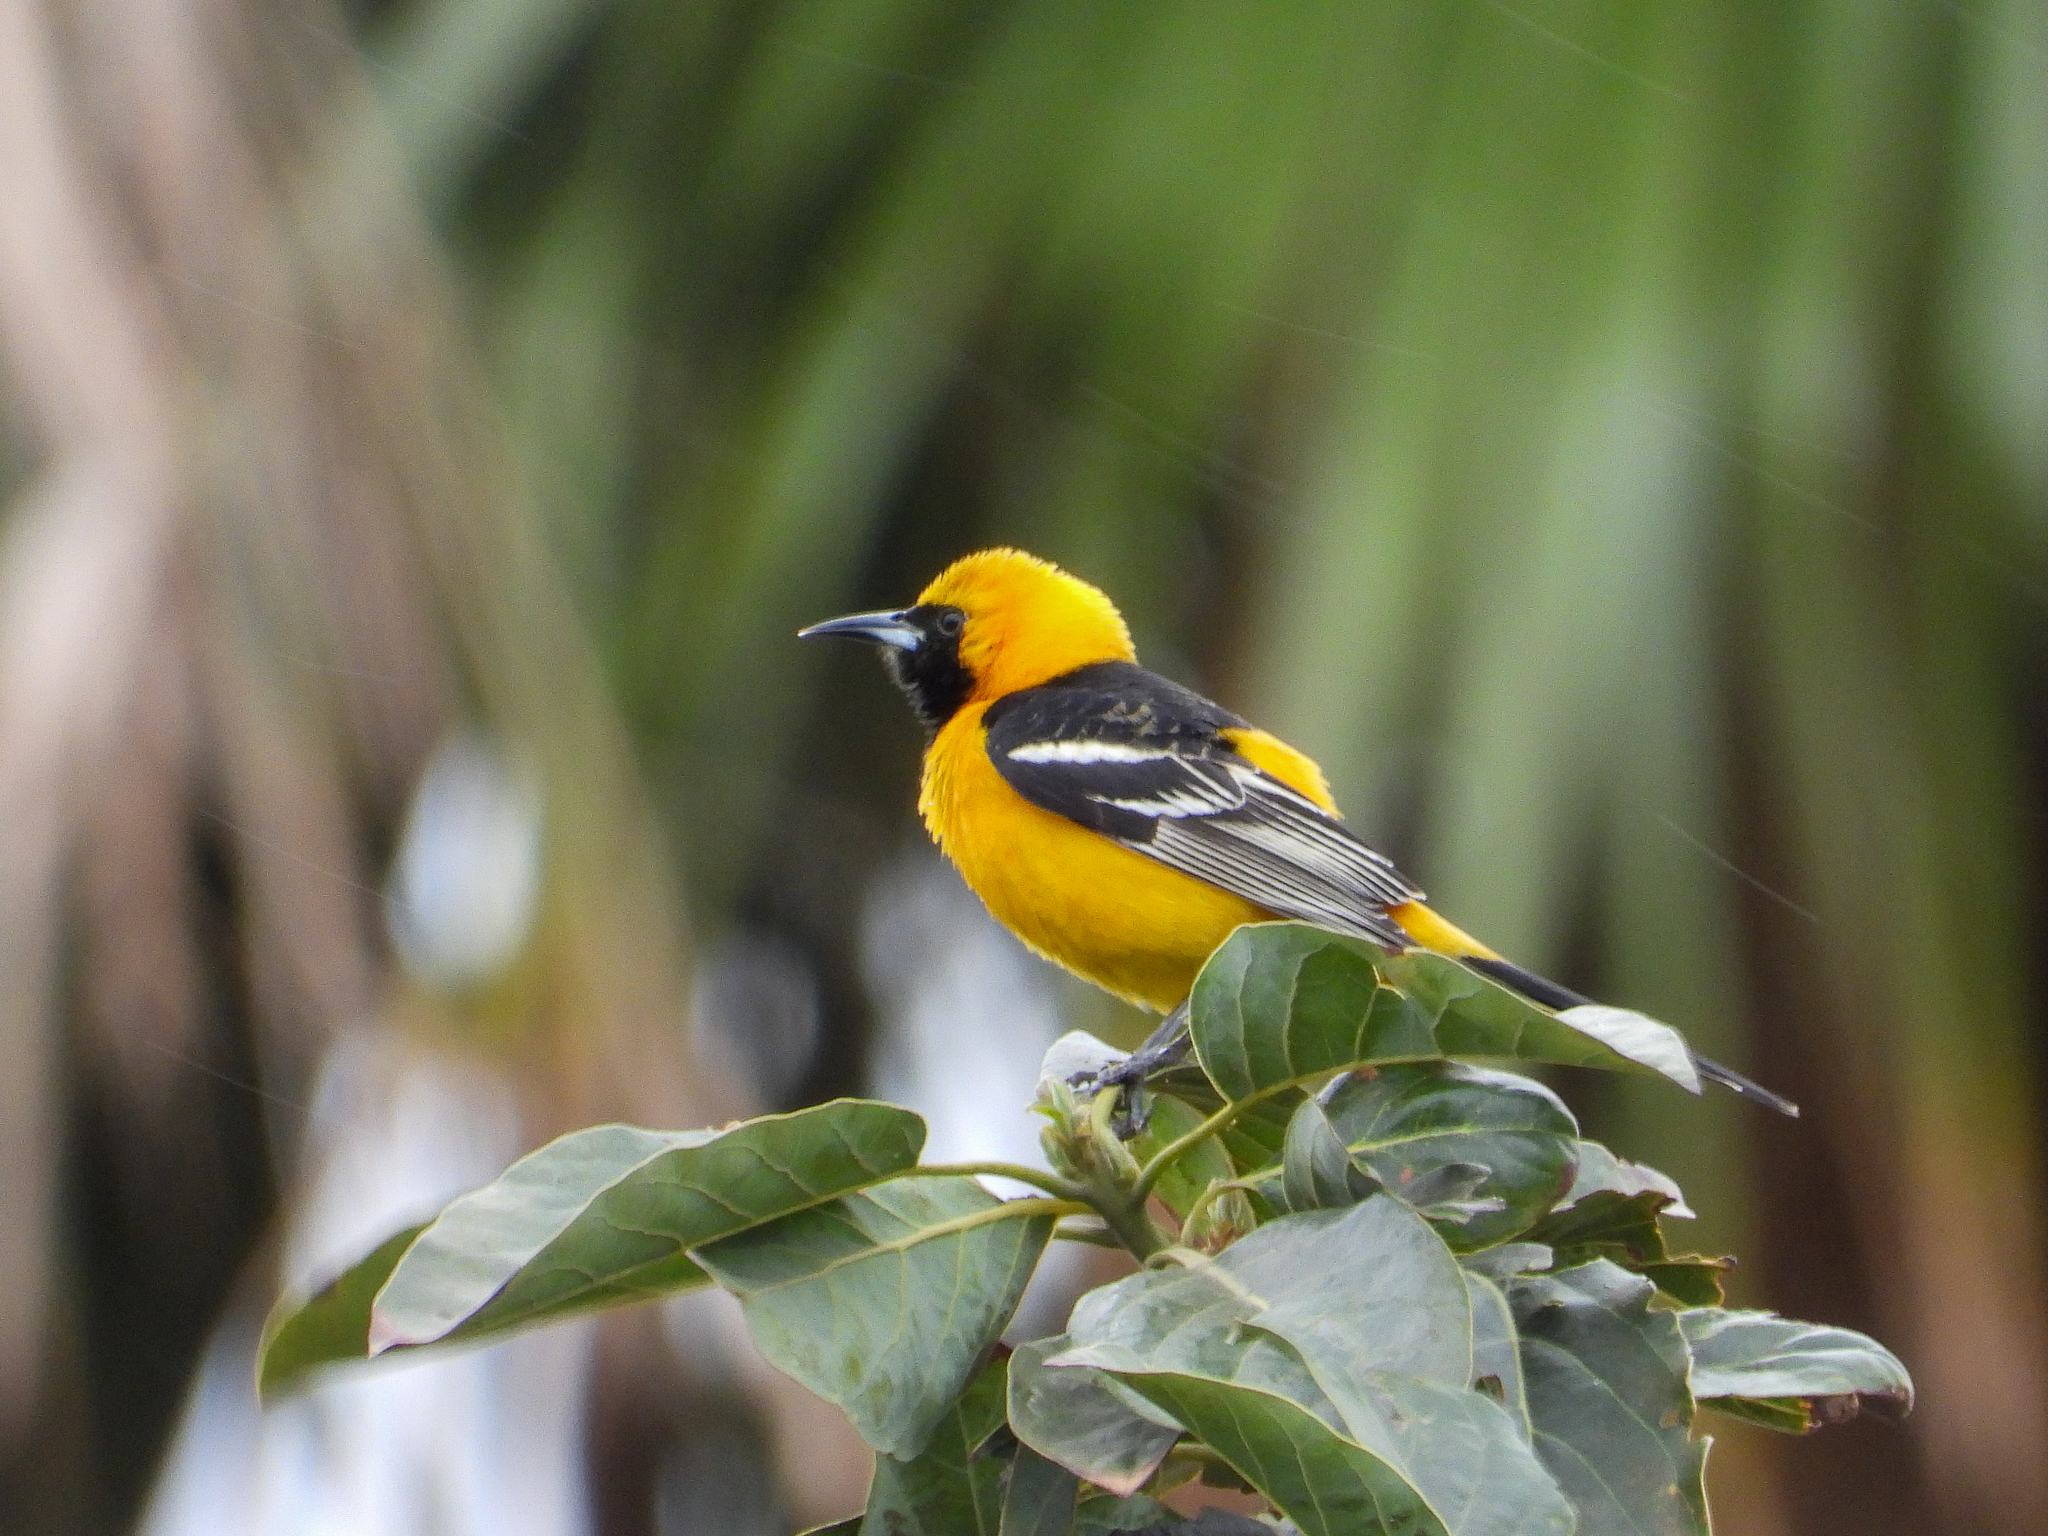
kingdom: Animalia
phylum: Chordata
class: Aves
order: Passeriformes
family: Icteridae
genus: Icterus
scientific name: Icterus cucullatus
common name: Hooded oriole
